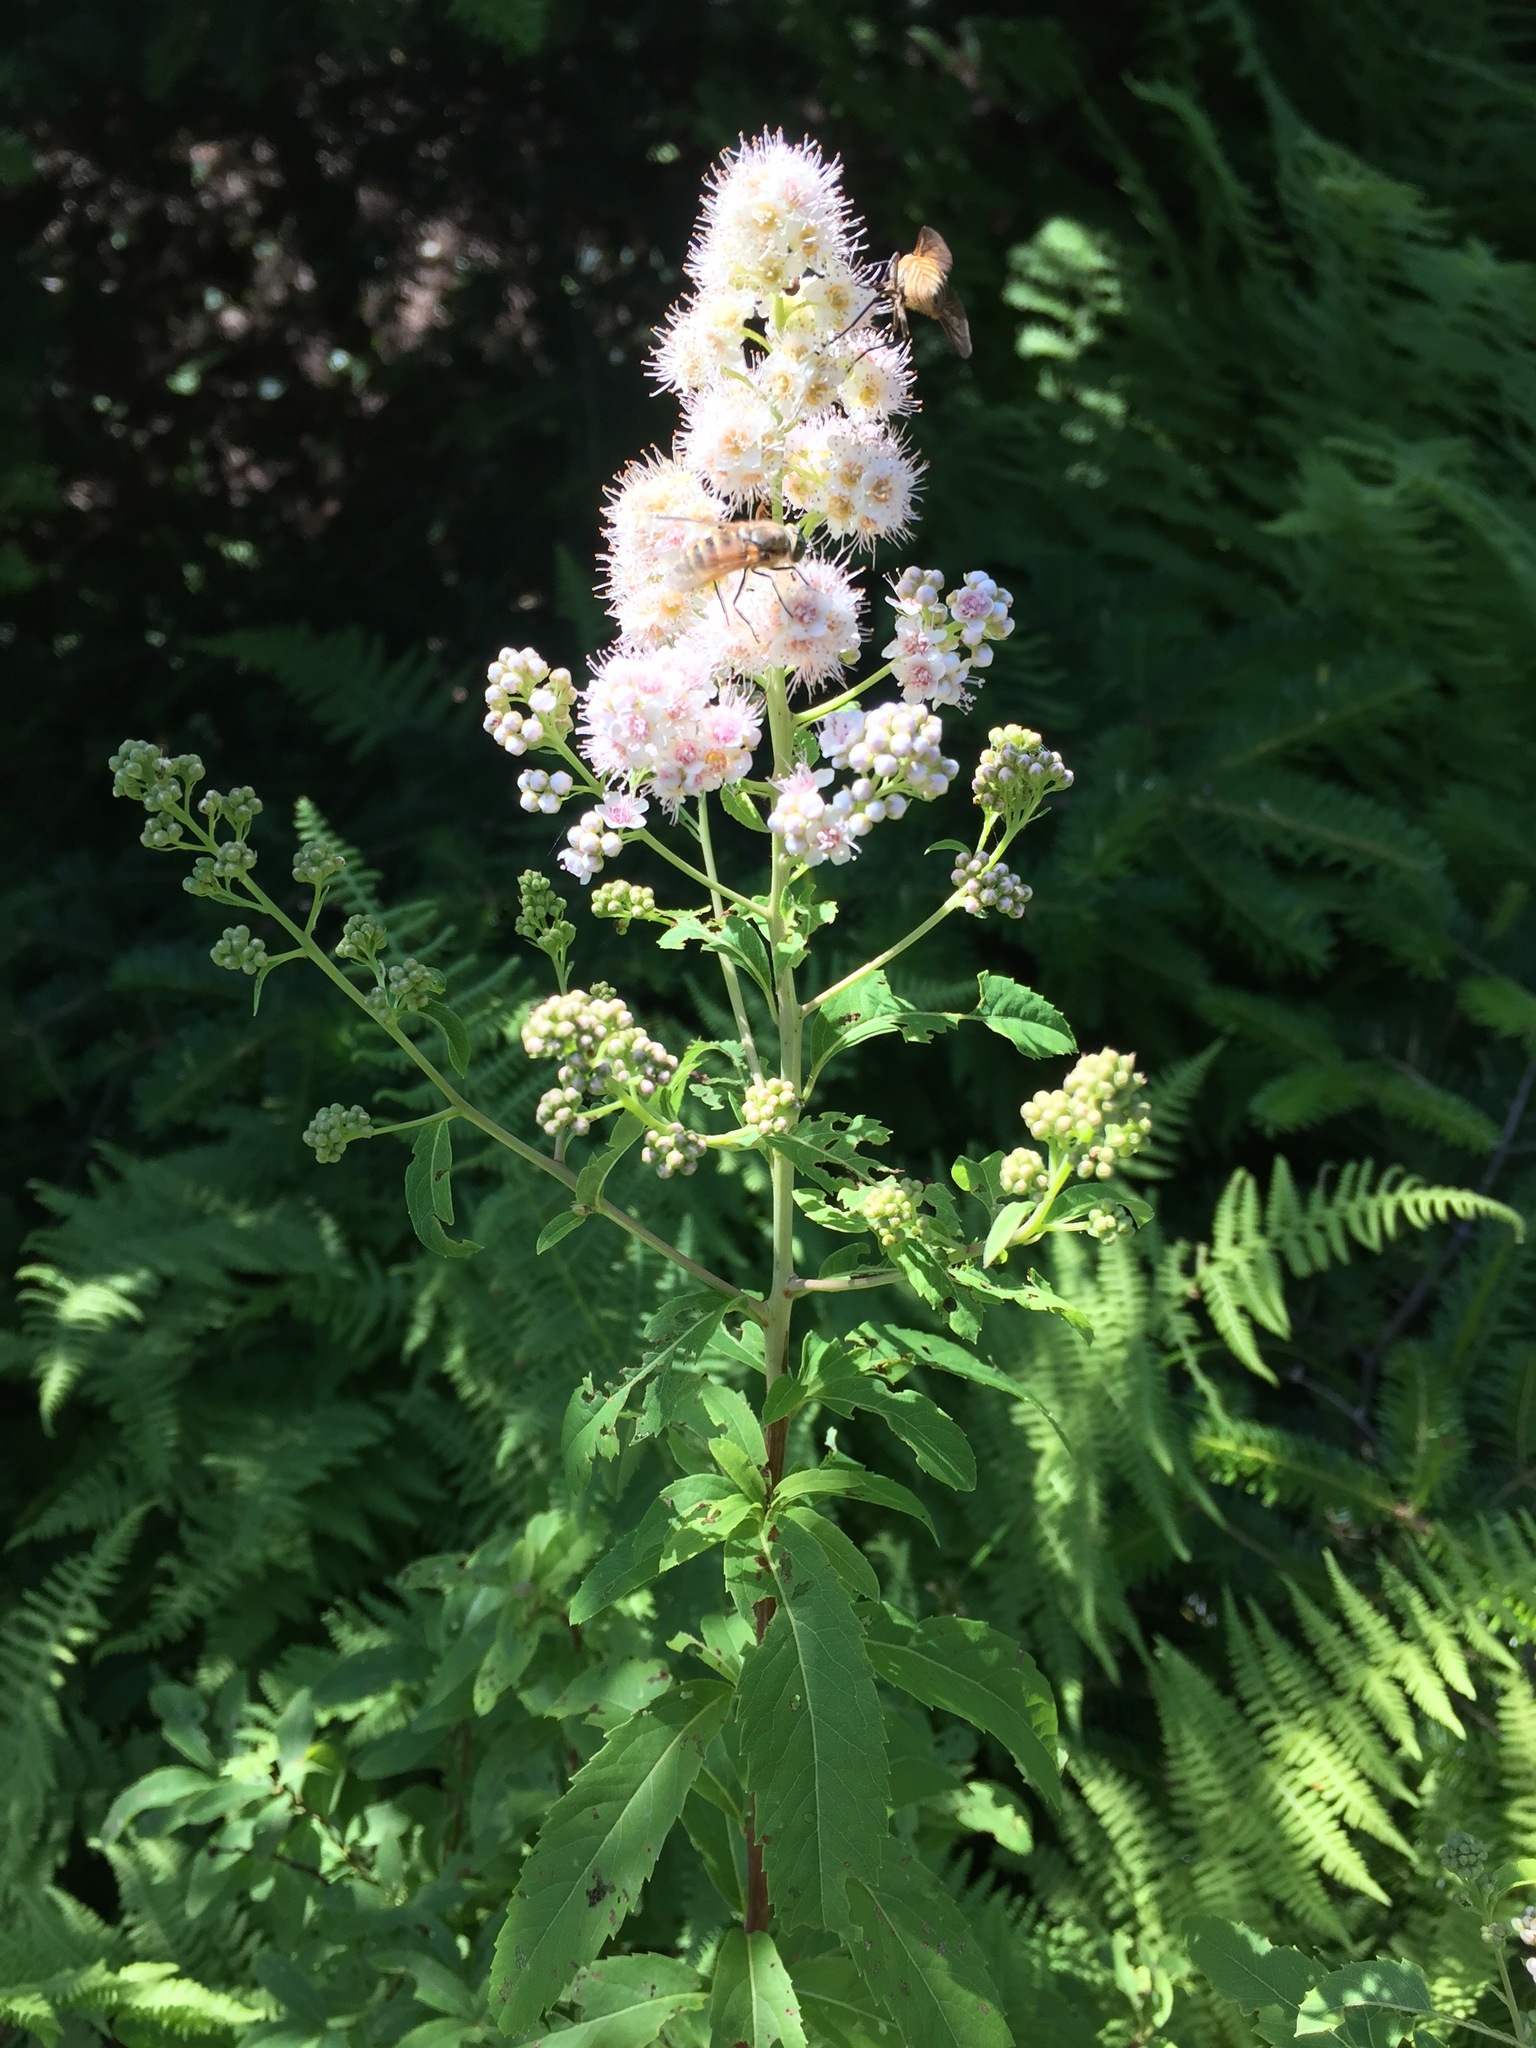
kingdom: Plantae
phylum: Tracheophyta
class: Magnoliopsida
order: Rosales
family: Rosaceae
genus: Spiraea
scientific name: Spiraea alba
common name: Pale bridewort
